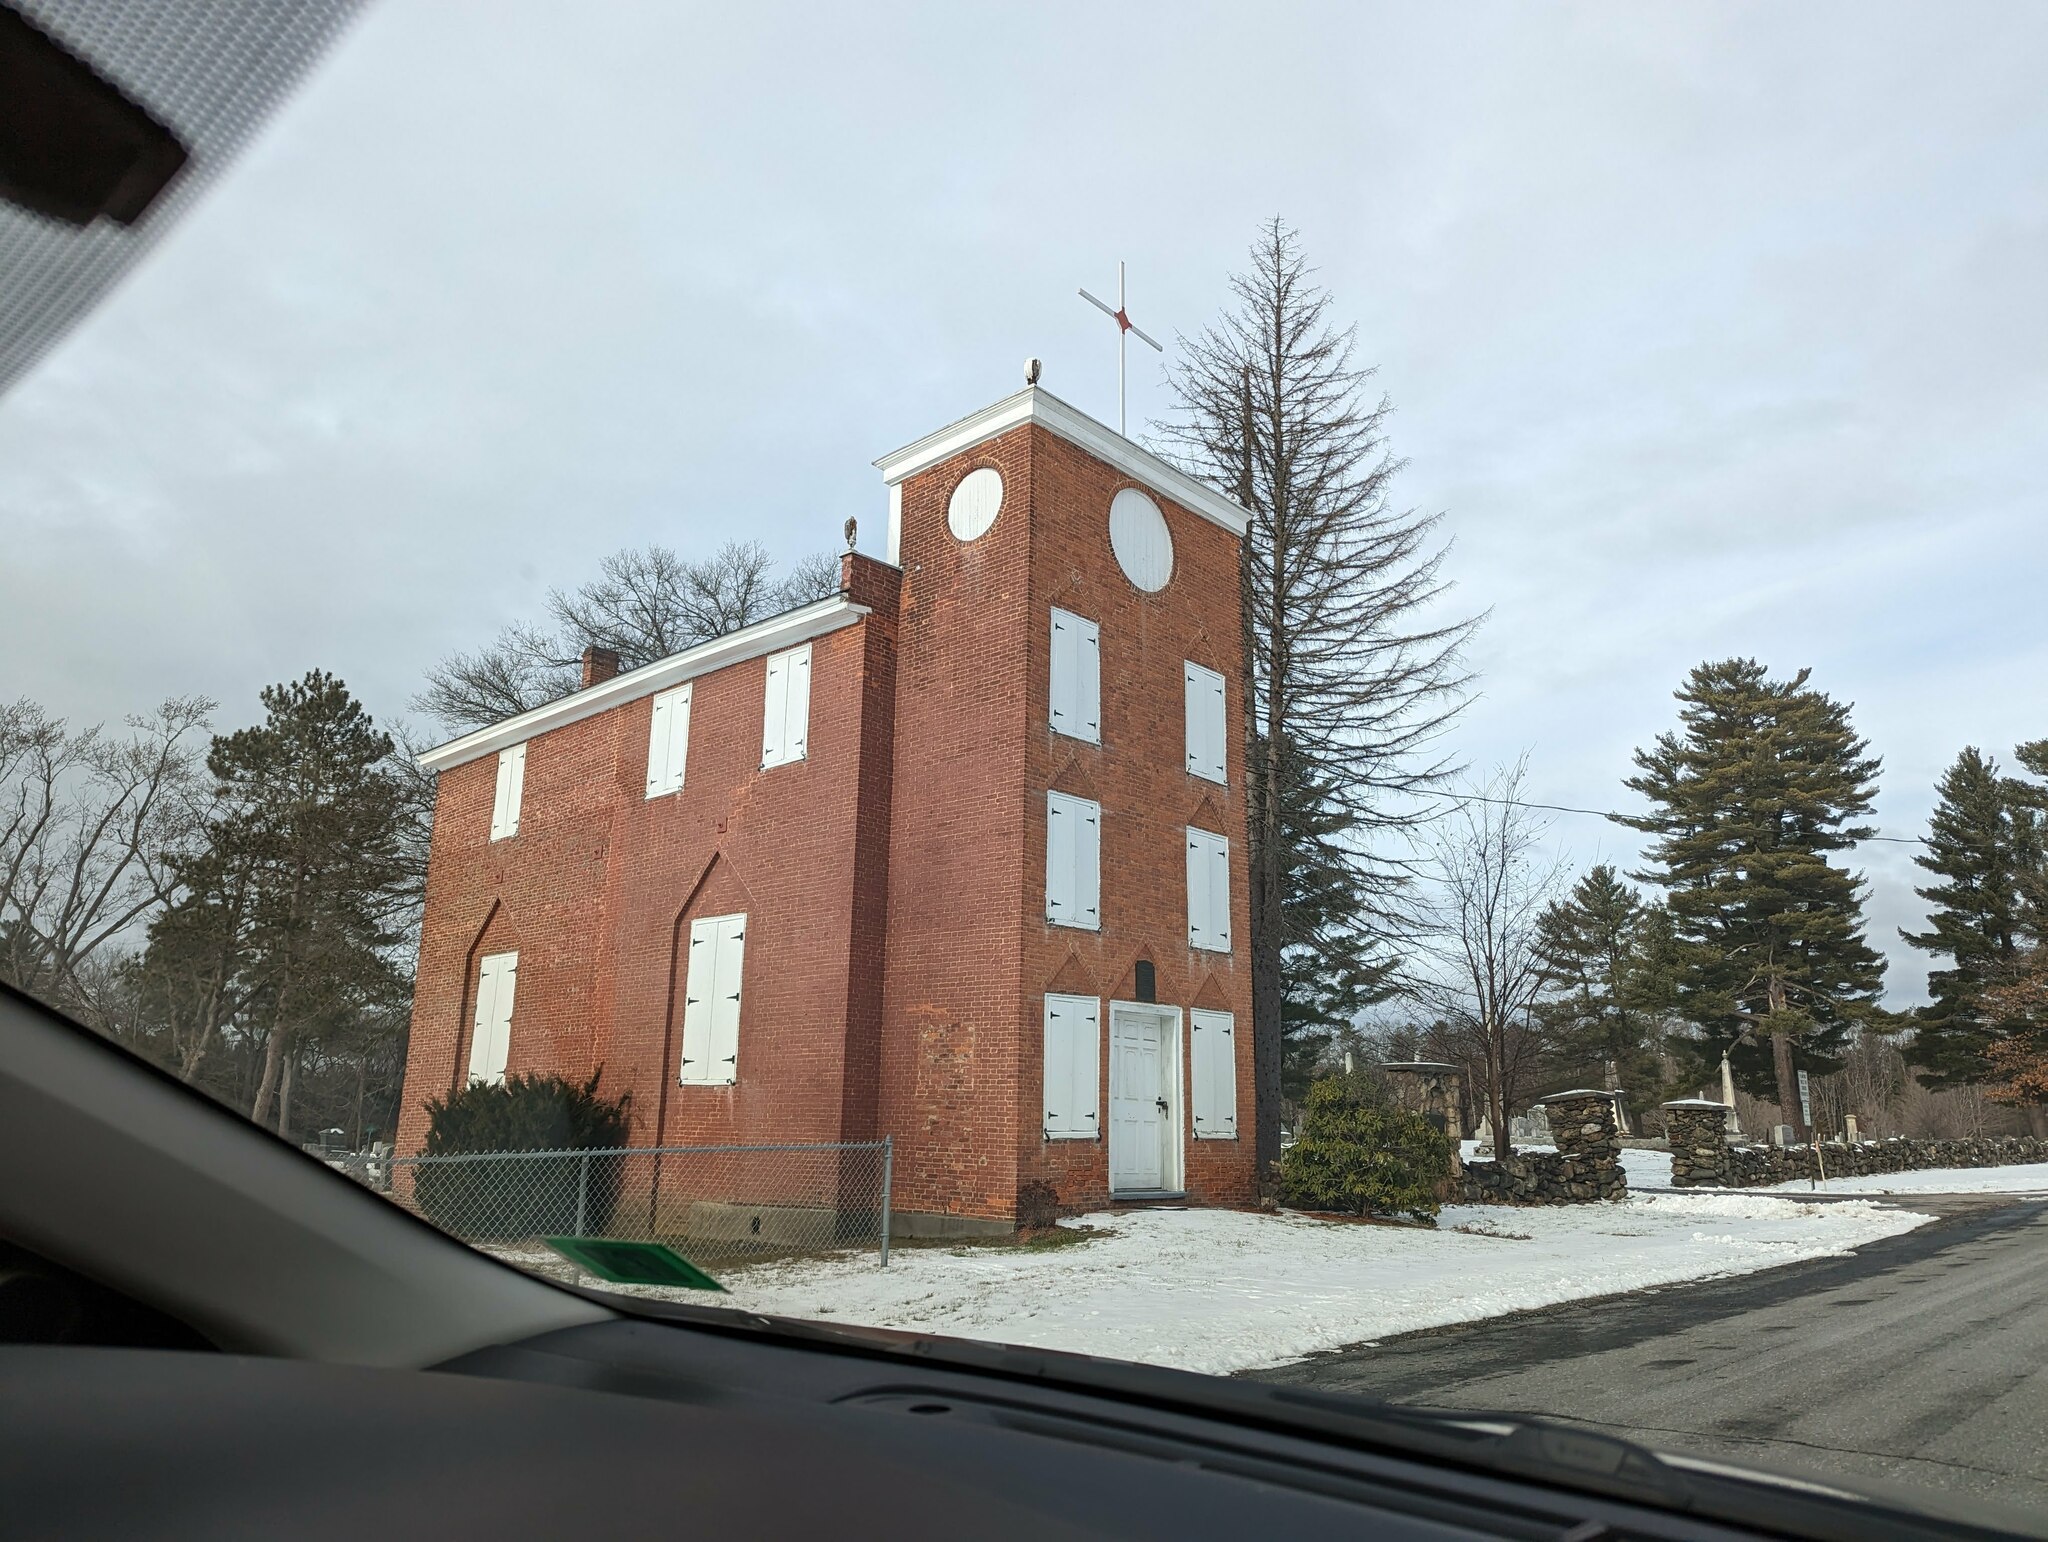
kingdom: Plantae
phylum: Tracheophyta
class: Pinopsida
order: Pinales
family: Pinaceae
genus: Pinus
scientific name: Pinus strobus
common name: Weymouth pine
